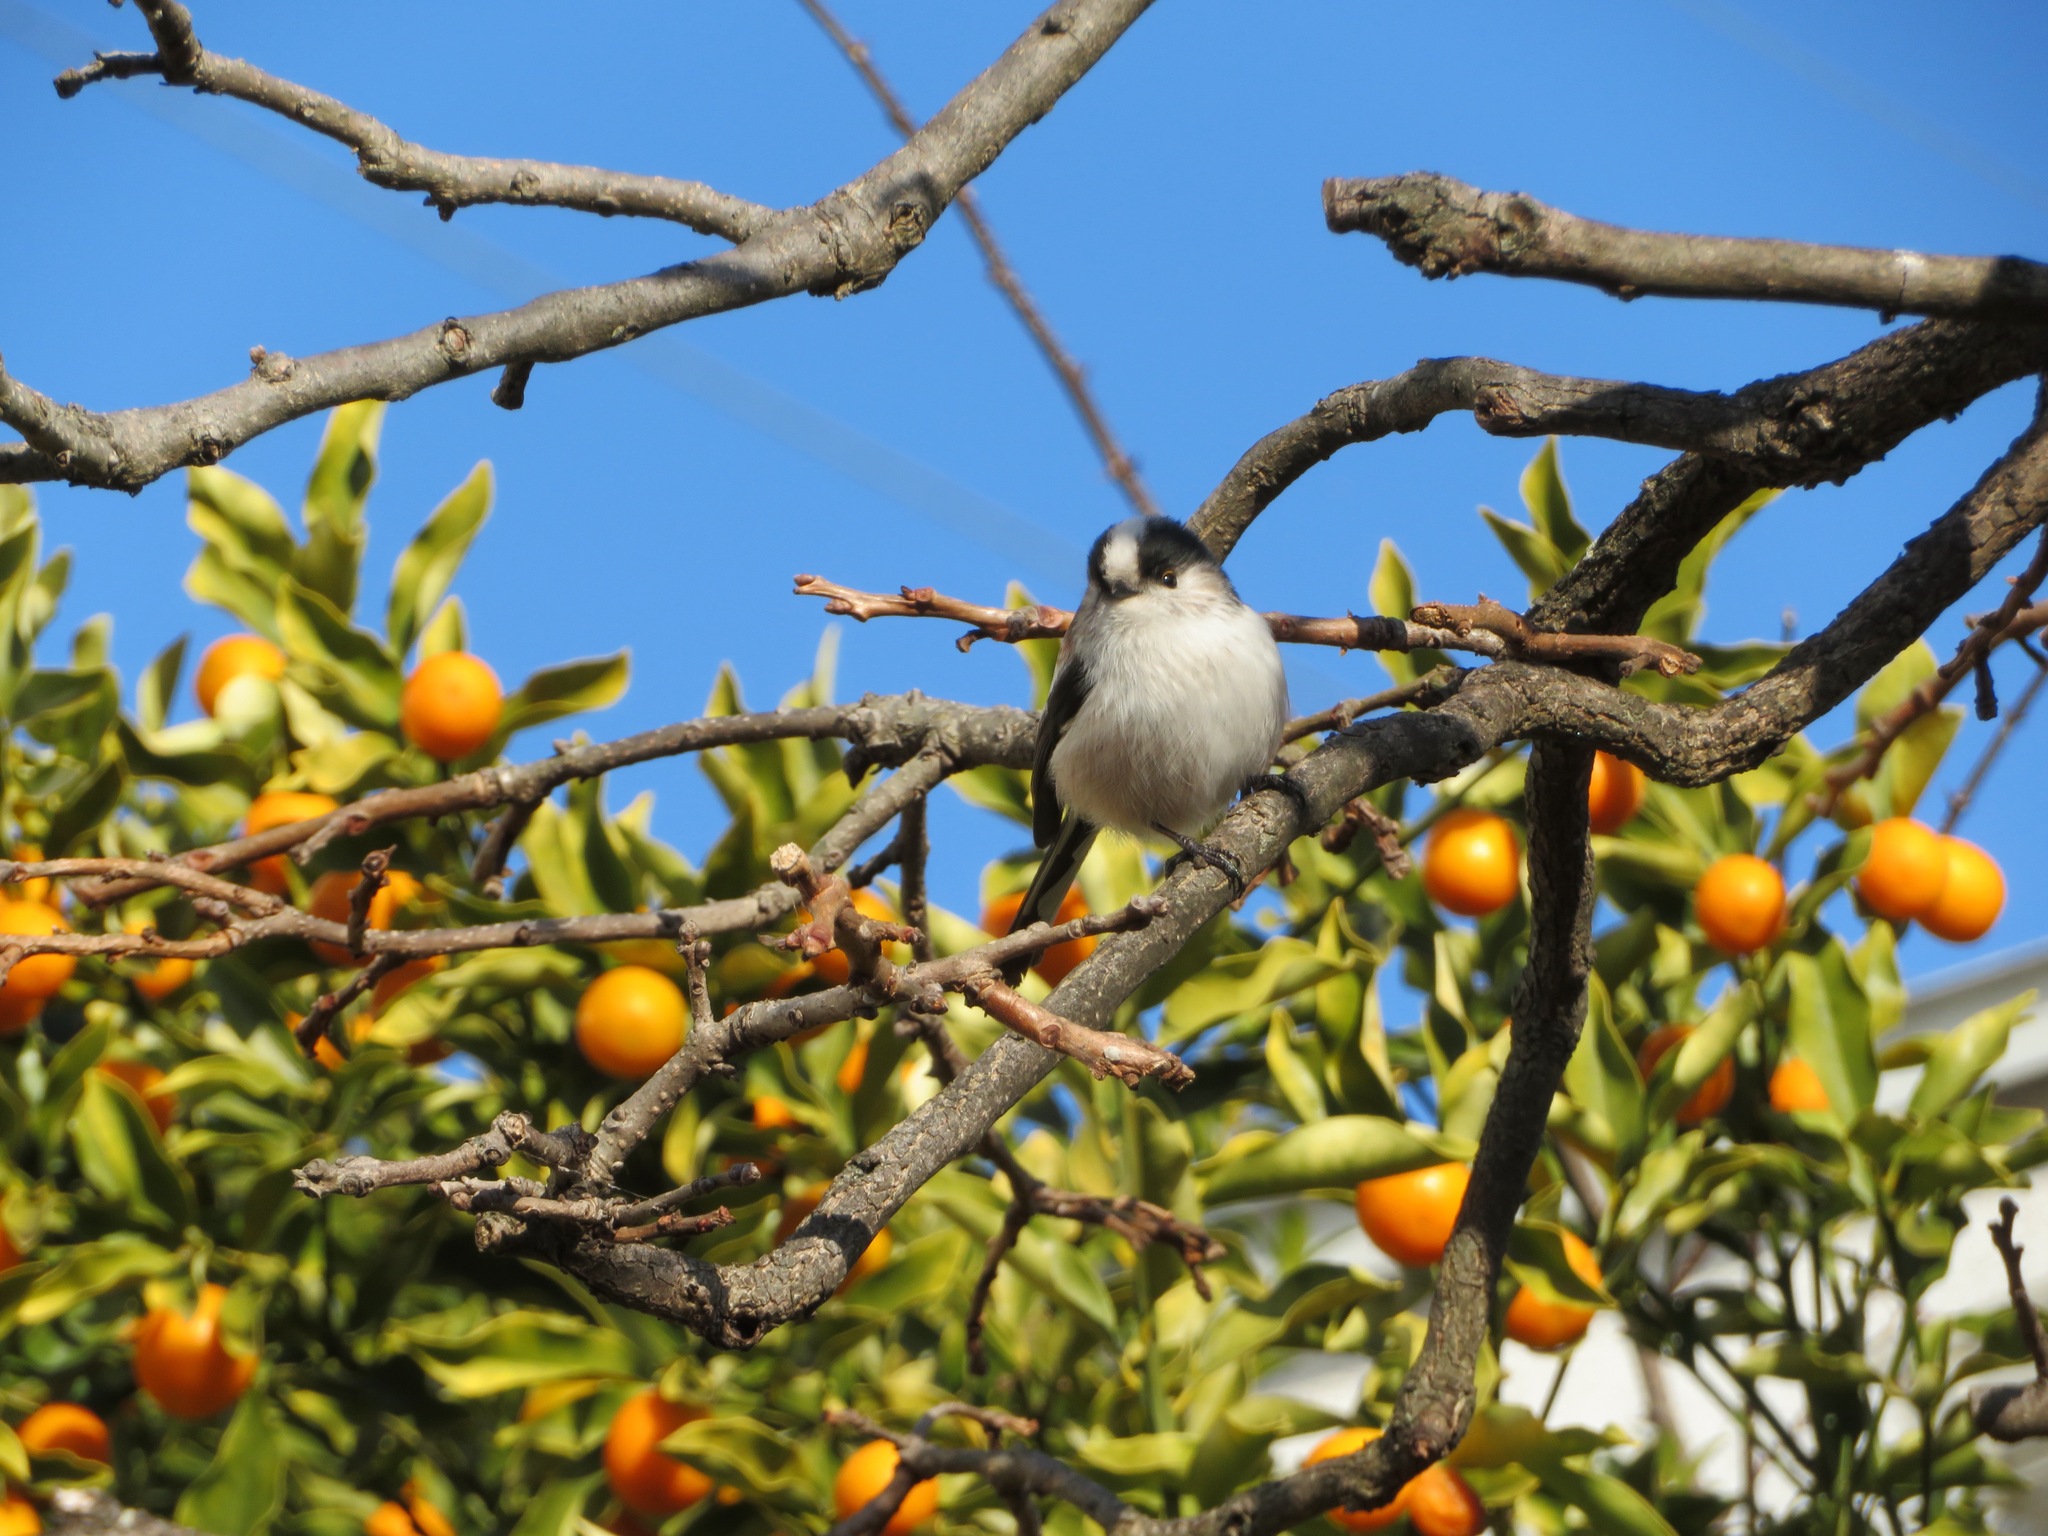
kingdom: Animalia
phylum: Chordata
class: Aves
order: Passeriformes
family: Aegithalidae
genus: Aegithalos
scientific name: Aegithalos caudatus
